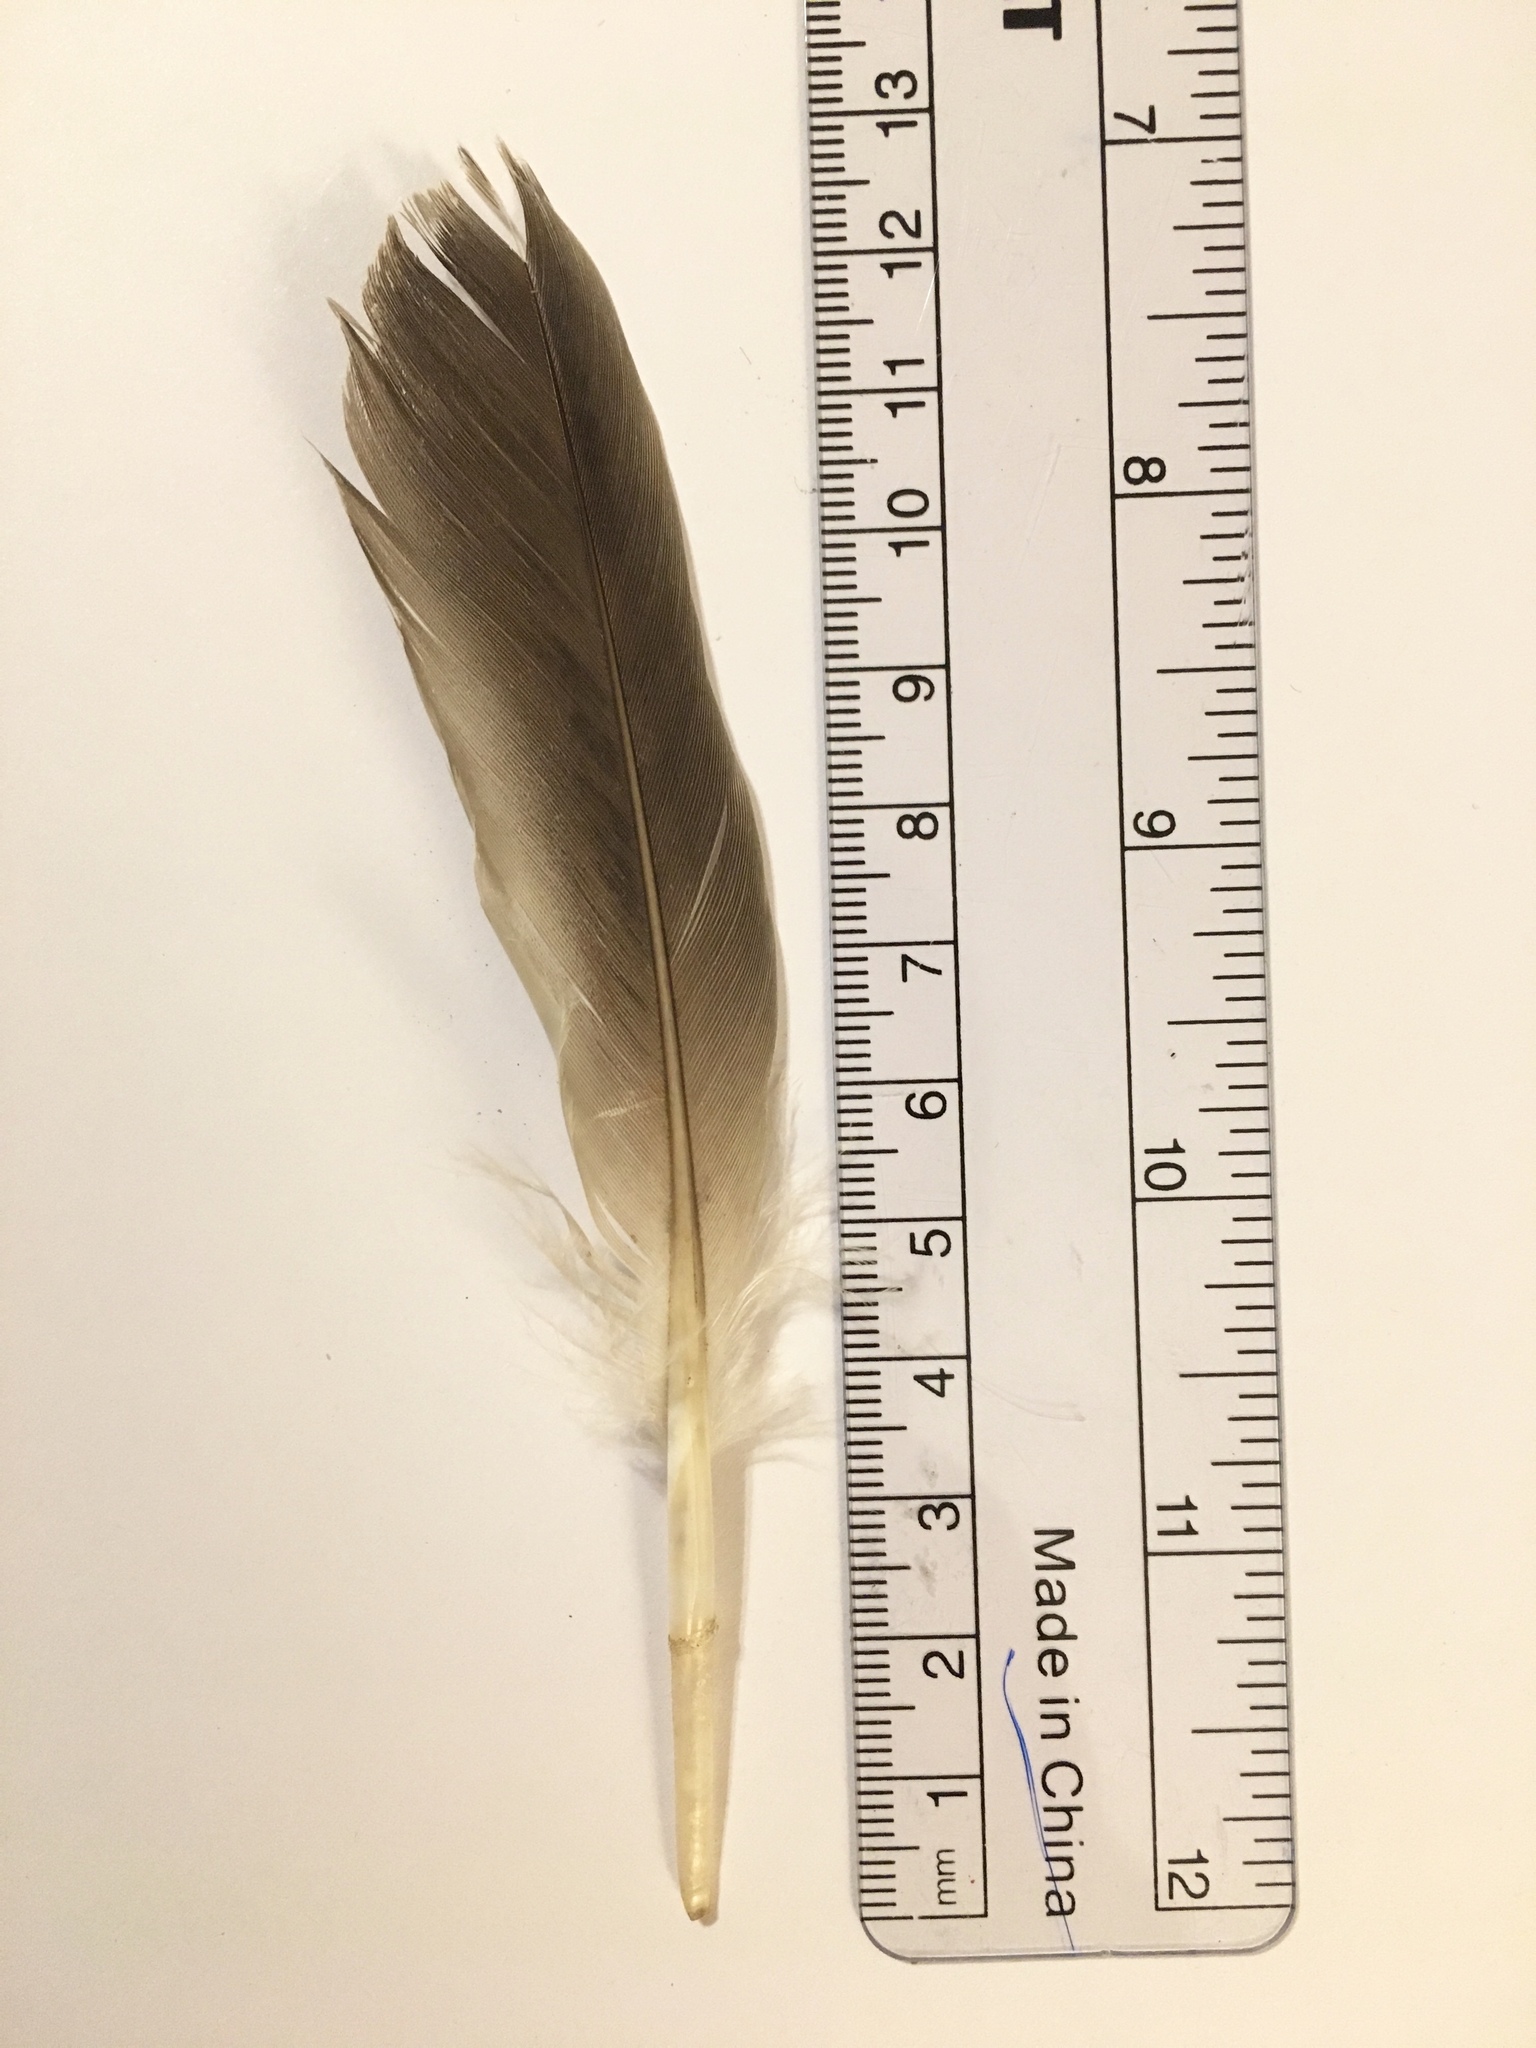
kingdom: Animalia
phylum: Chordata
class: Aves
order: Anseriformes
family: Anatidae
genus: Anas
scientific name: Anas platyrhynchos
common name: Mallard
